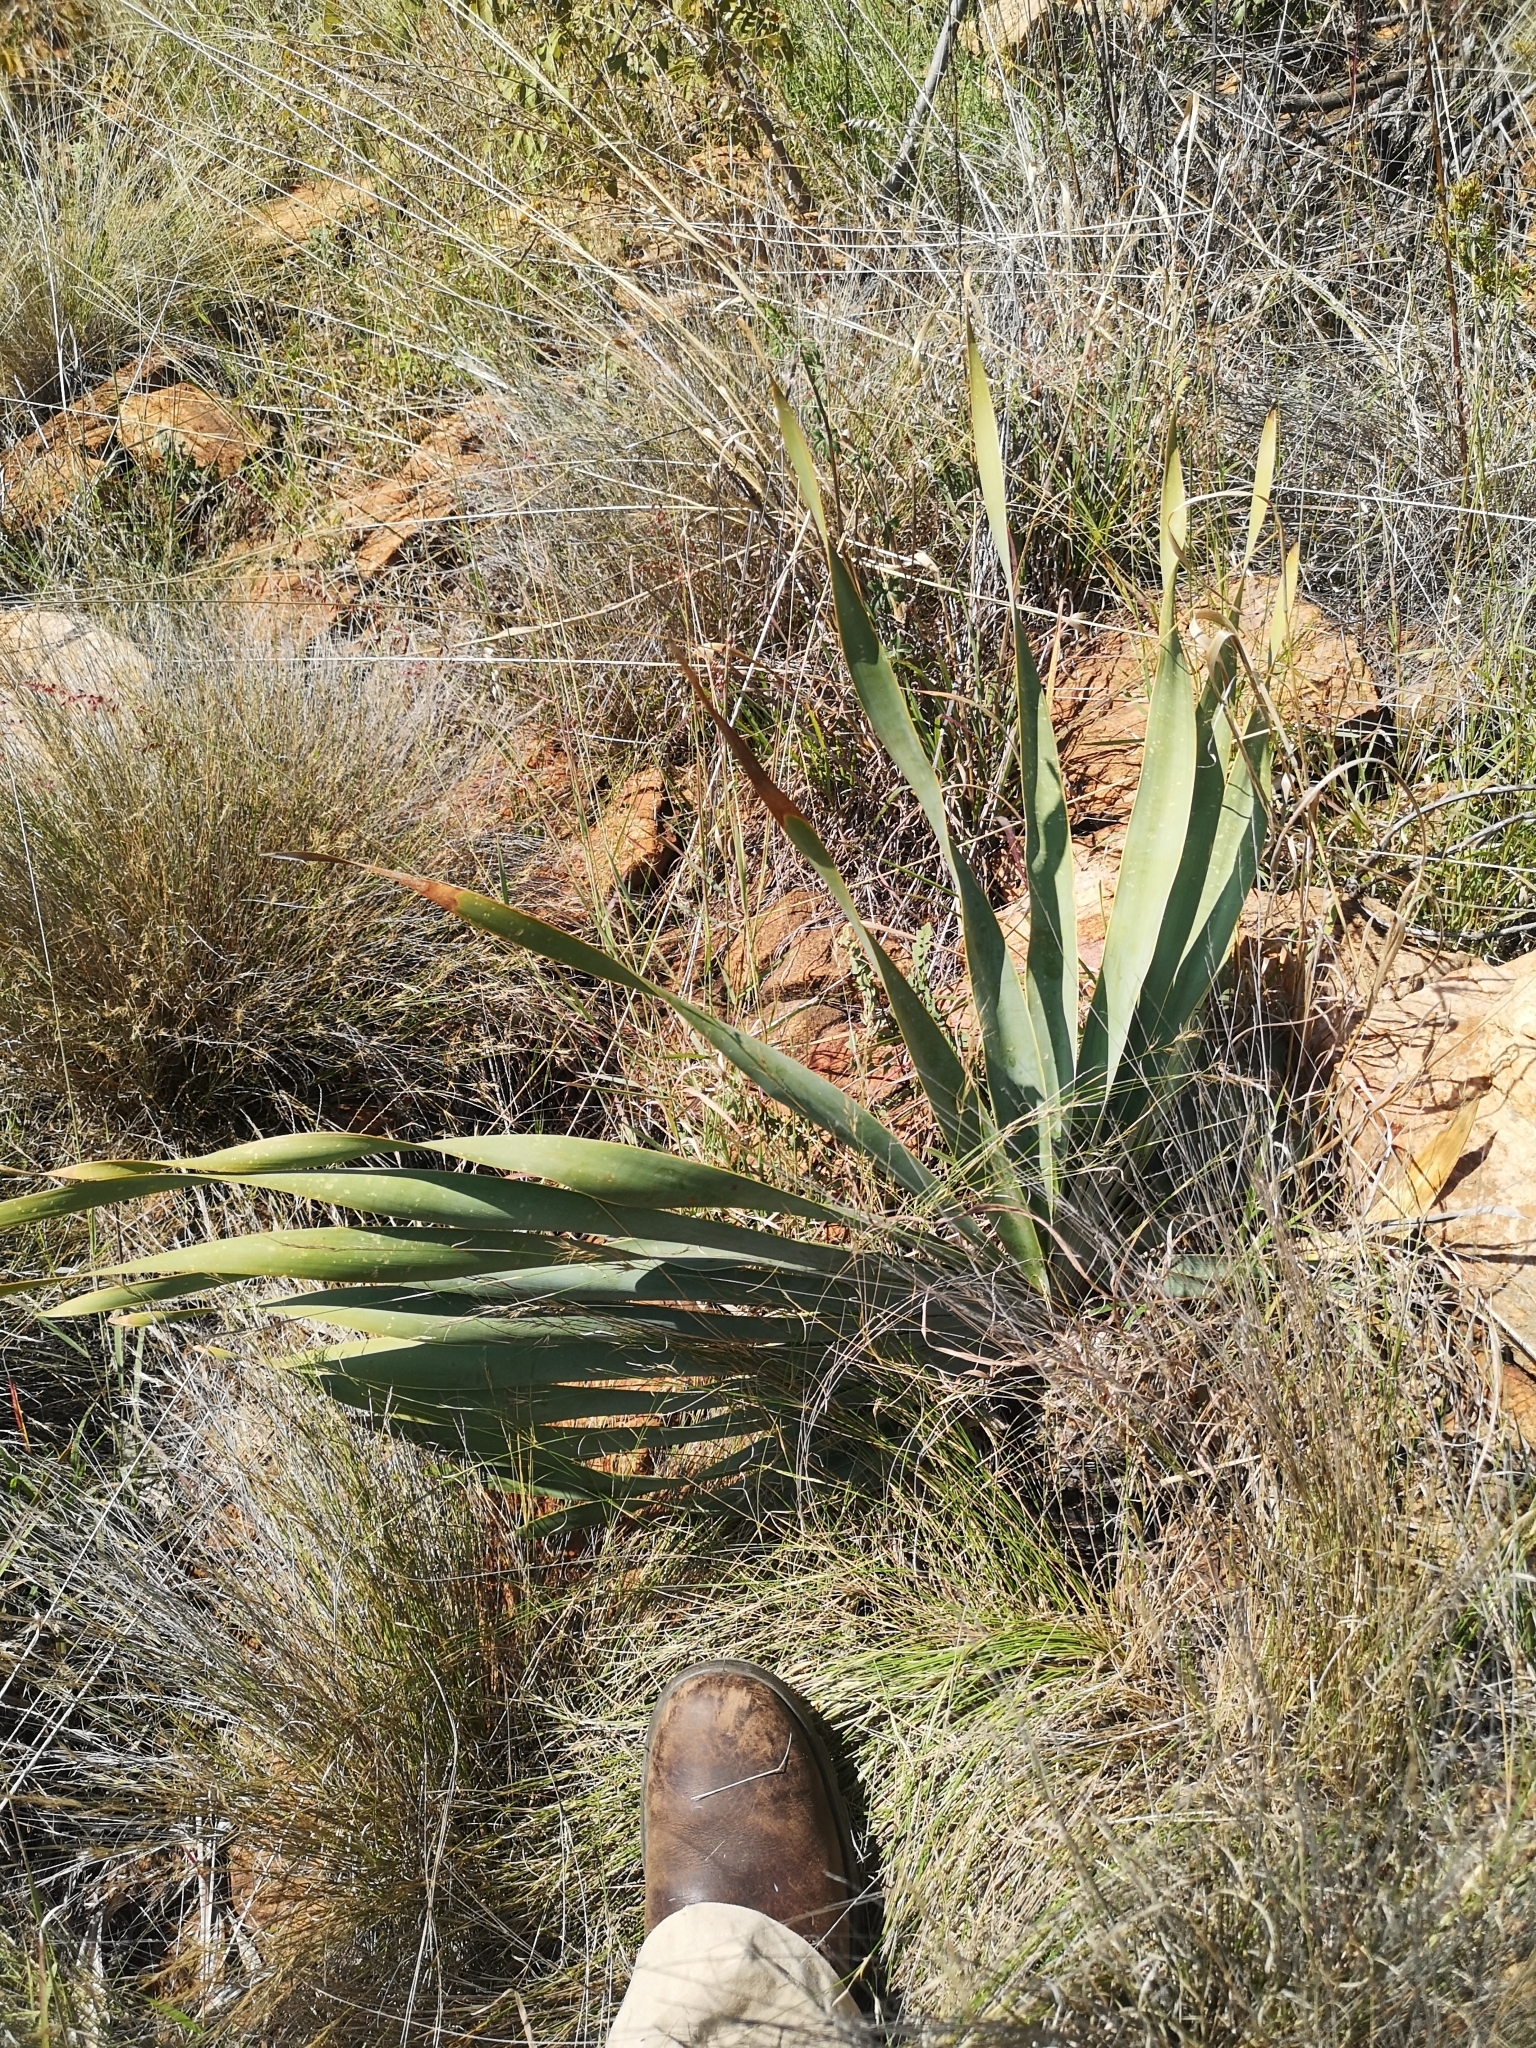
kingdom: Plantae
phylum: Tracheophyta
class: Liliopsida
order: Asparagales
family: Amaryllidaceae
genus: Boophone
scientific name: Boophone disticha
